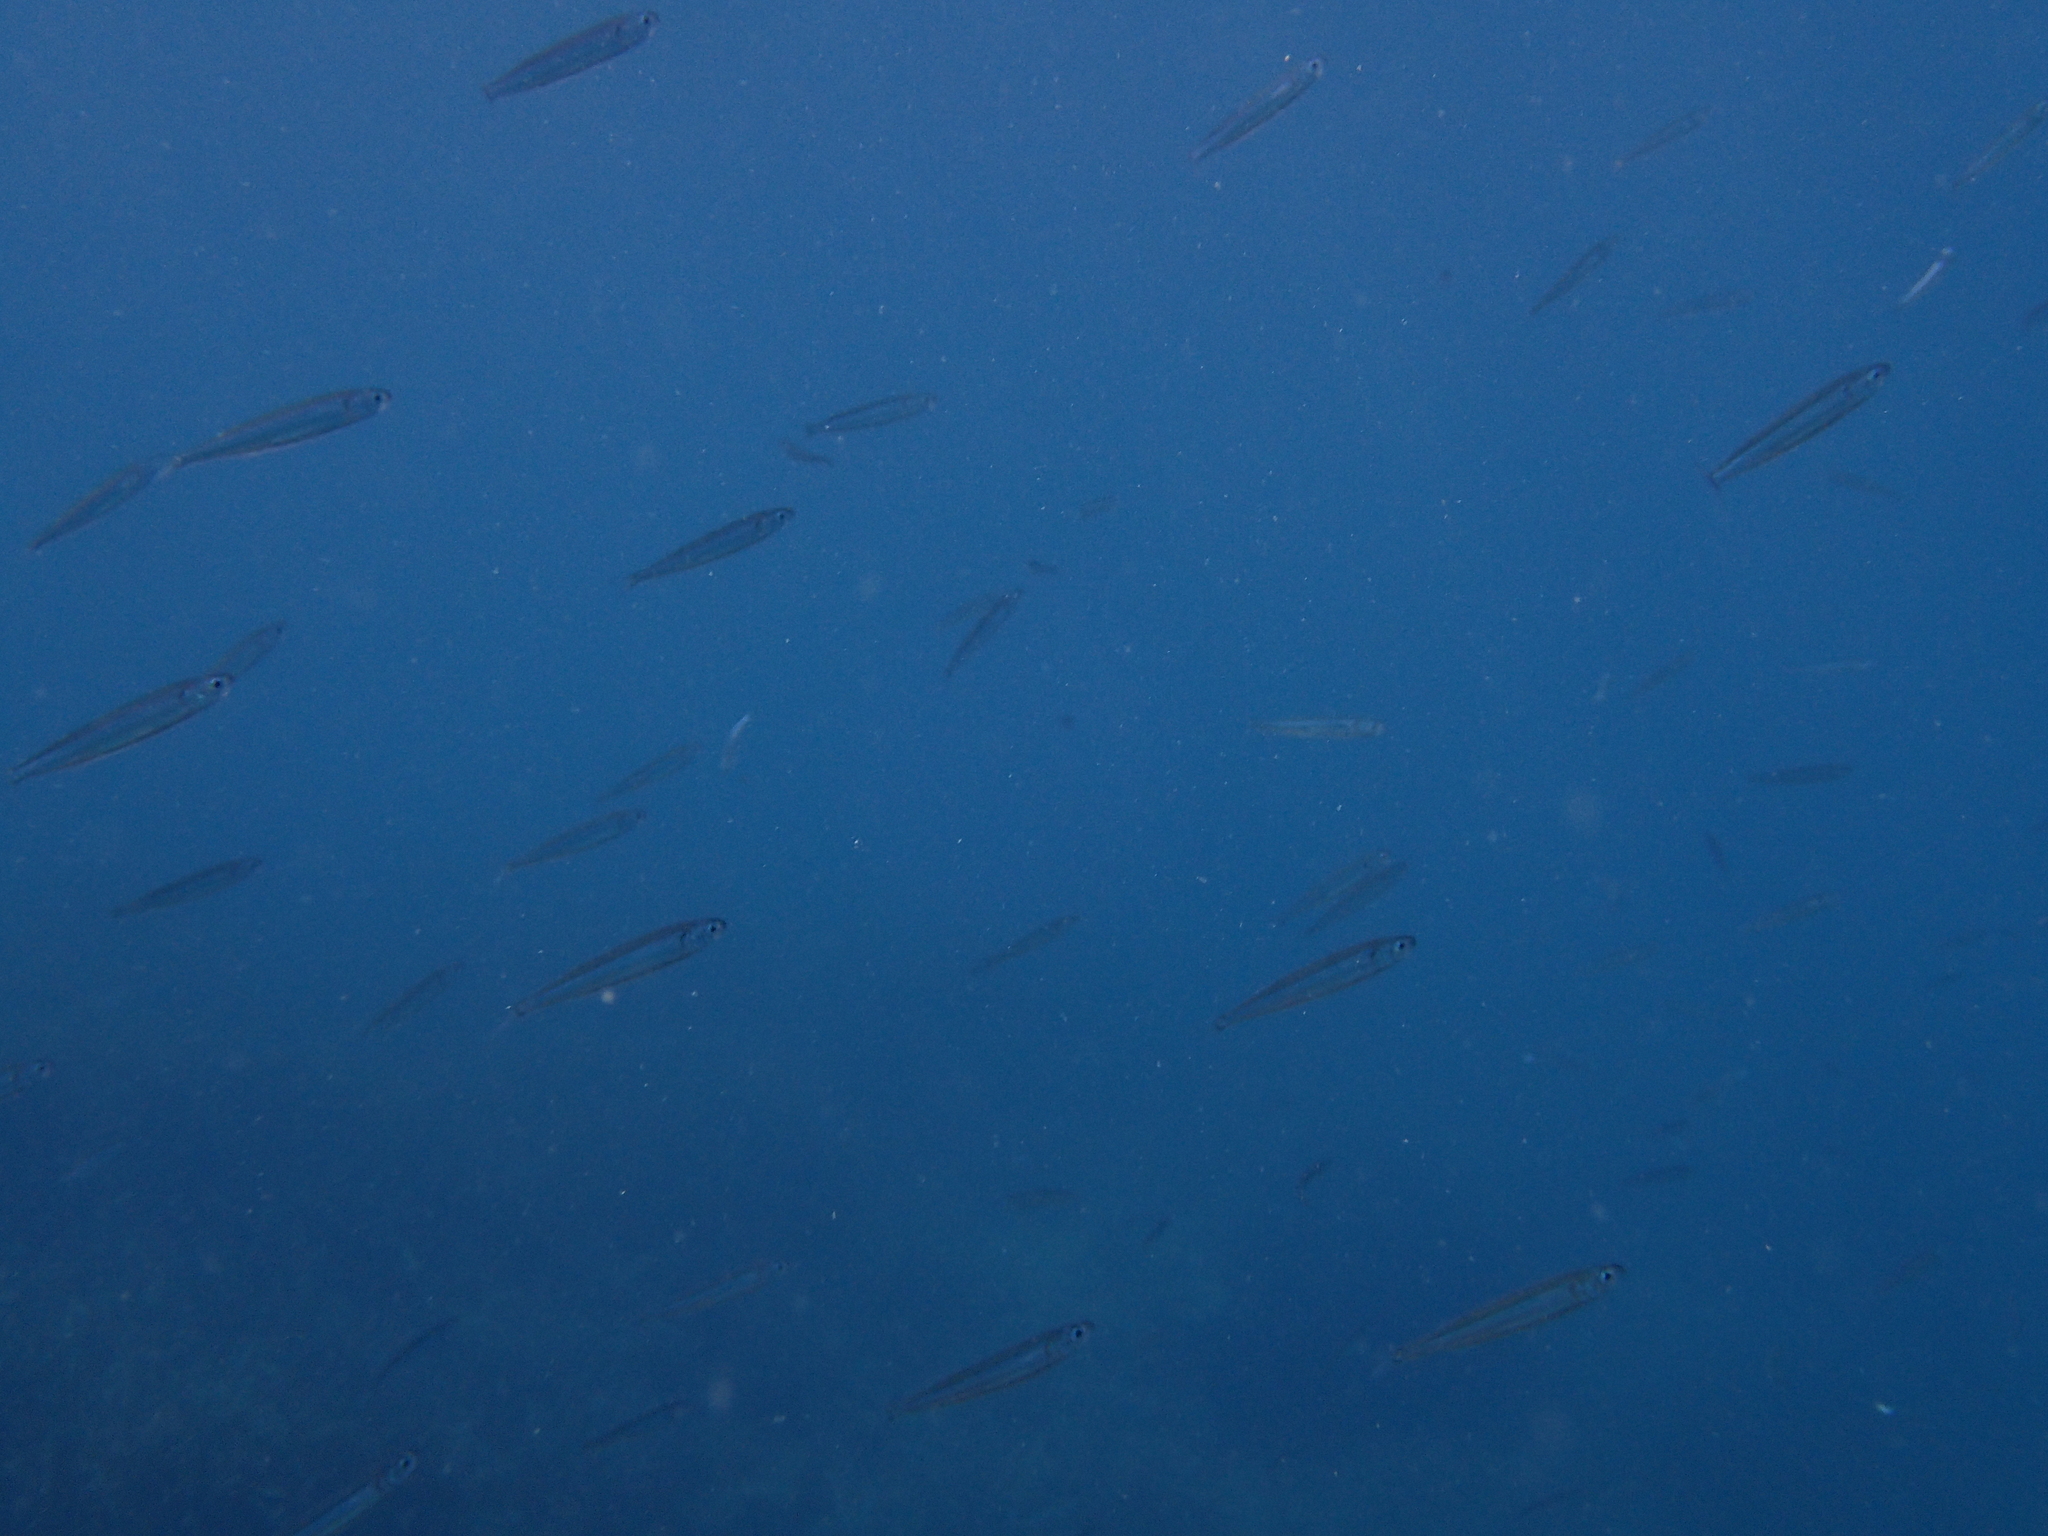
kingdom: Animalia
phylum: Chordata
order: Atheriniformes
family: Atherinidae
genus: Atherina
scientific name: Atherina hepsetus
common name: Mediterranean sand smelt
